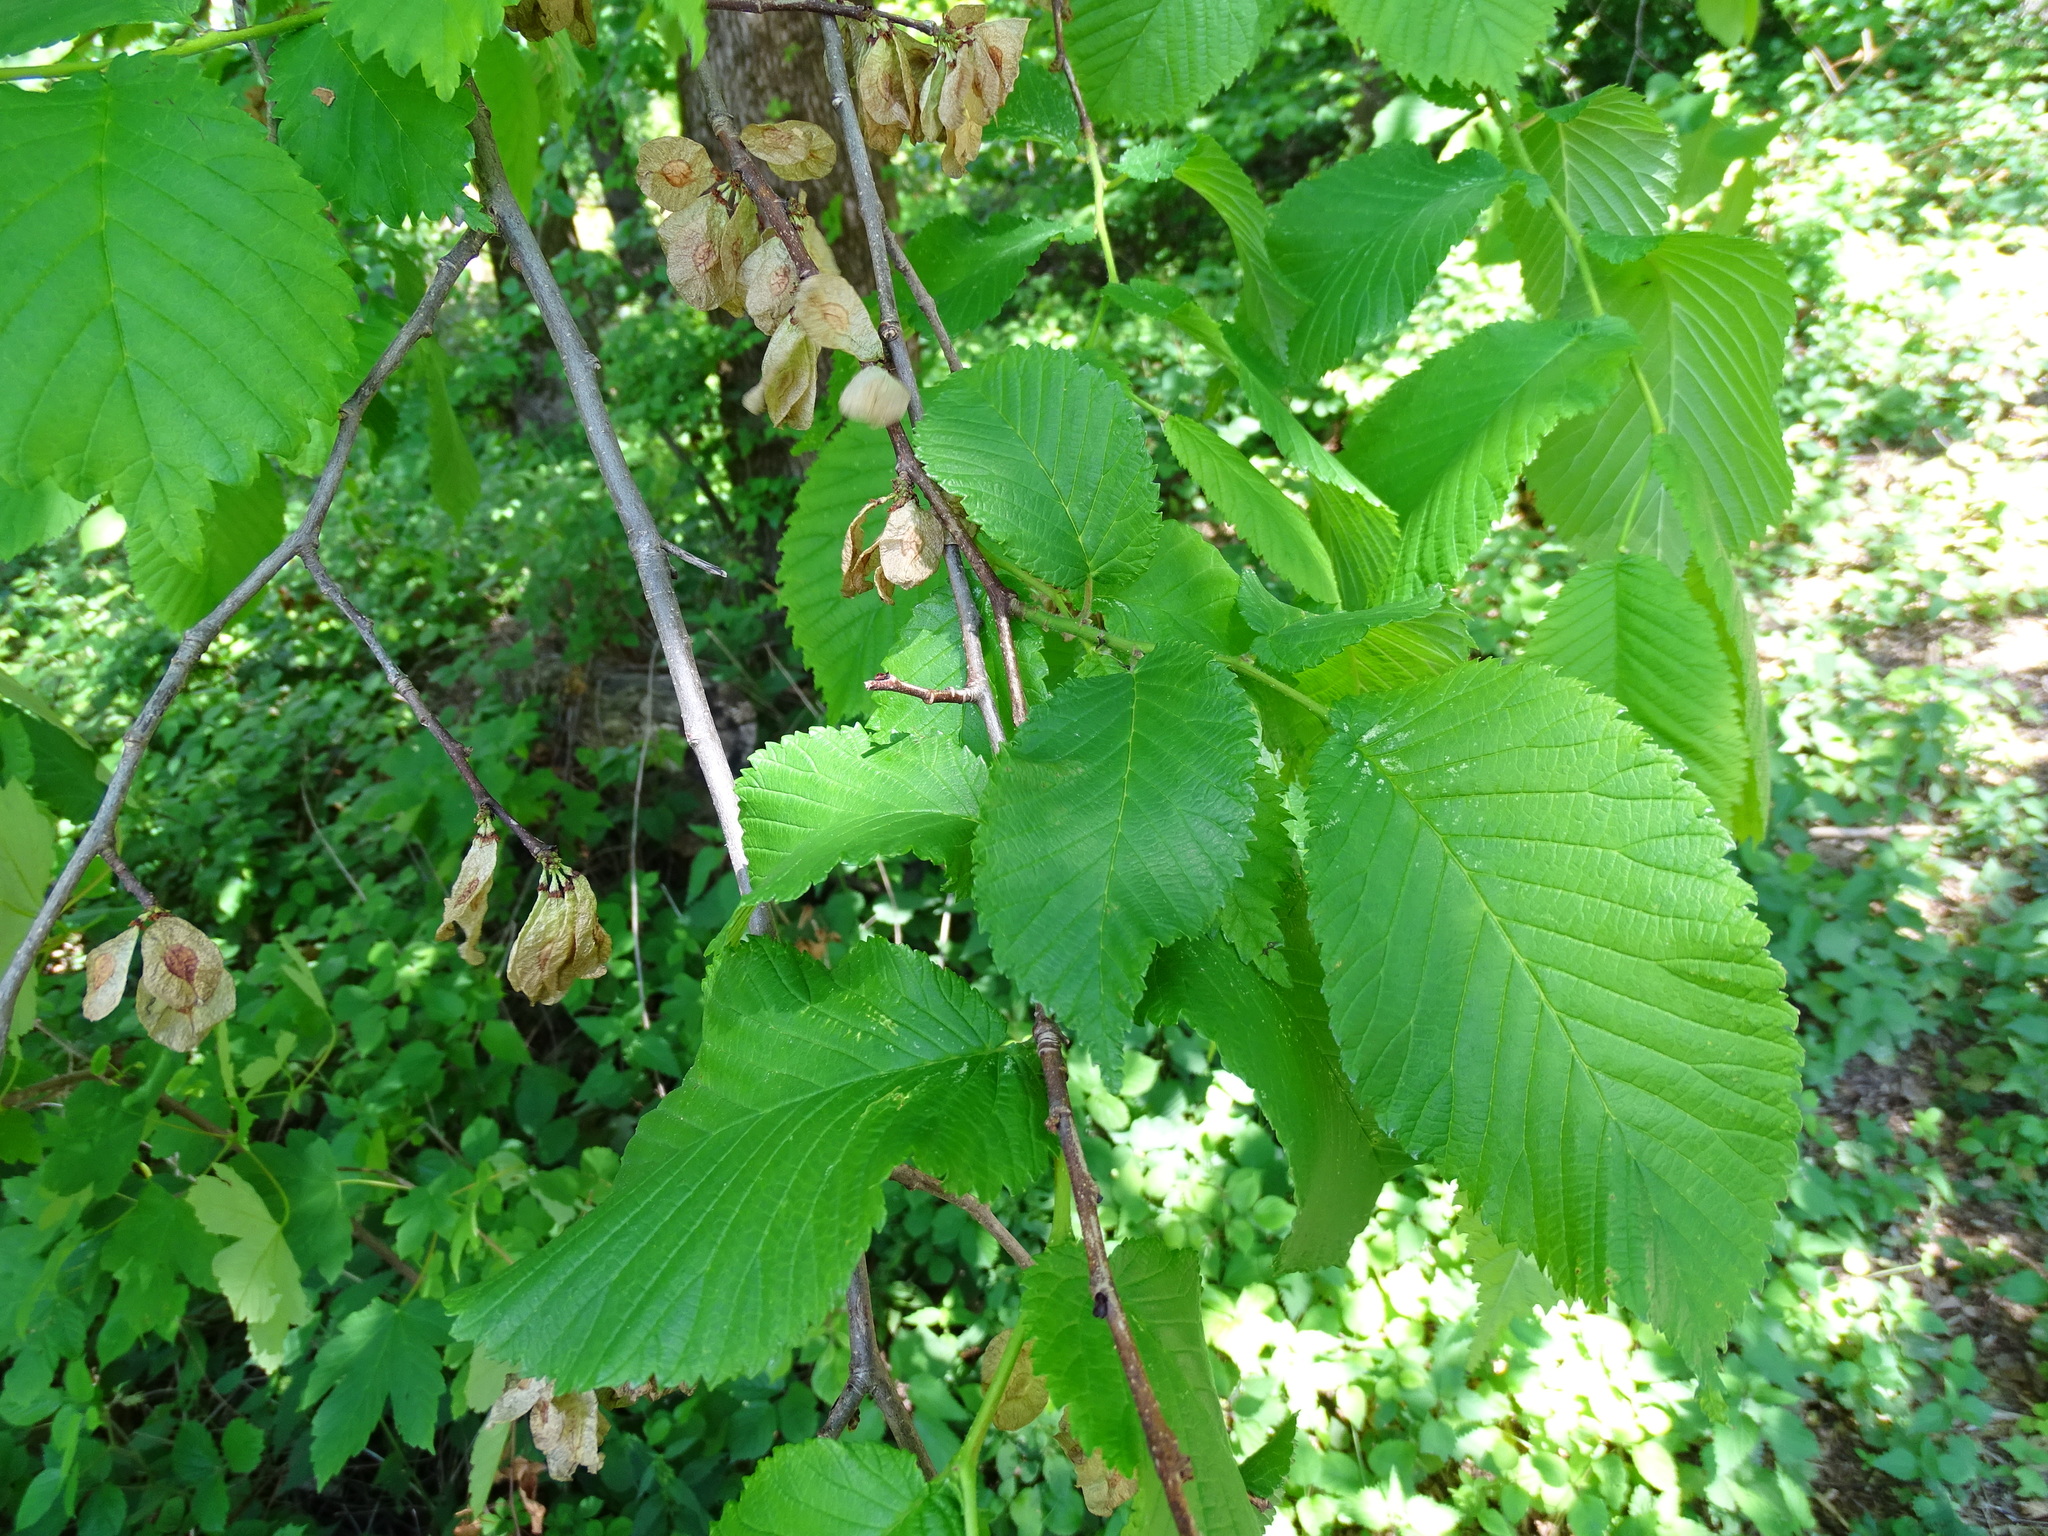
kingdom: Plantae
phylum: Tracheophyta
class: Magnoliopsida
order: Rosales
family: Ulmaceae
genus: Ulmus
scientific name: Ulmus glabra
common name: Wych elm
